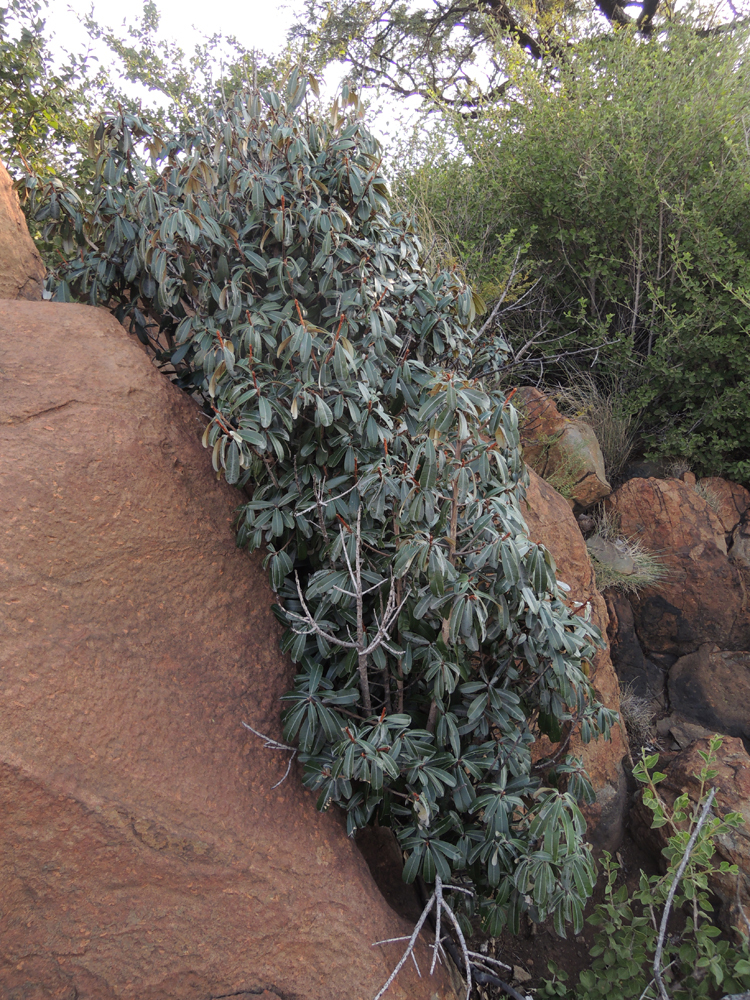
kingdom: Plantae
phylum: Tracheophyta
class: Magnoliopsida
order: Ericales
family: Sapotaceae
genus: Englerophytum
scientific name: Englerophytum magalismontanum
